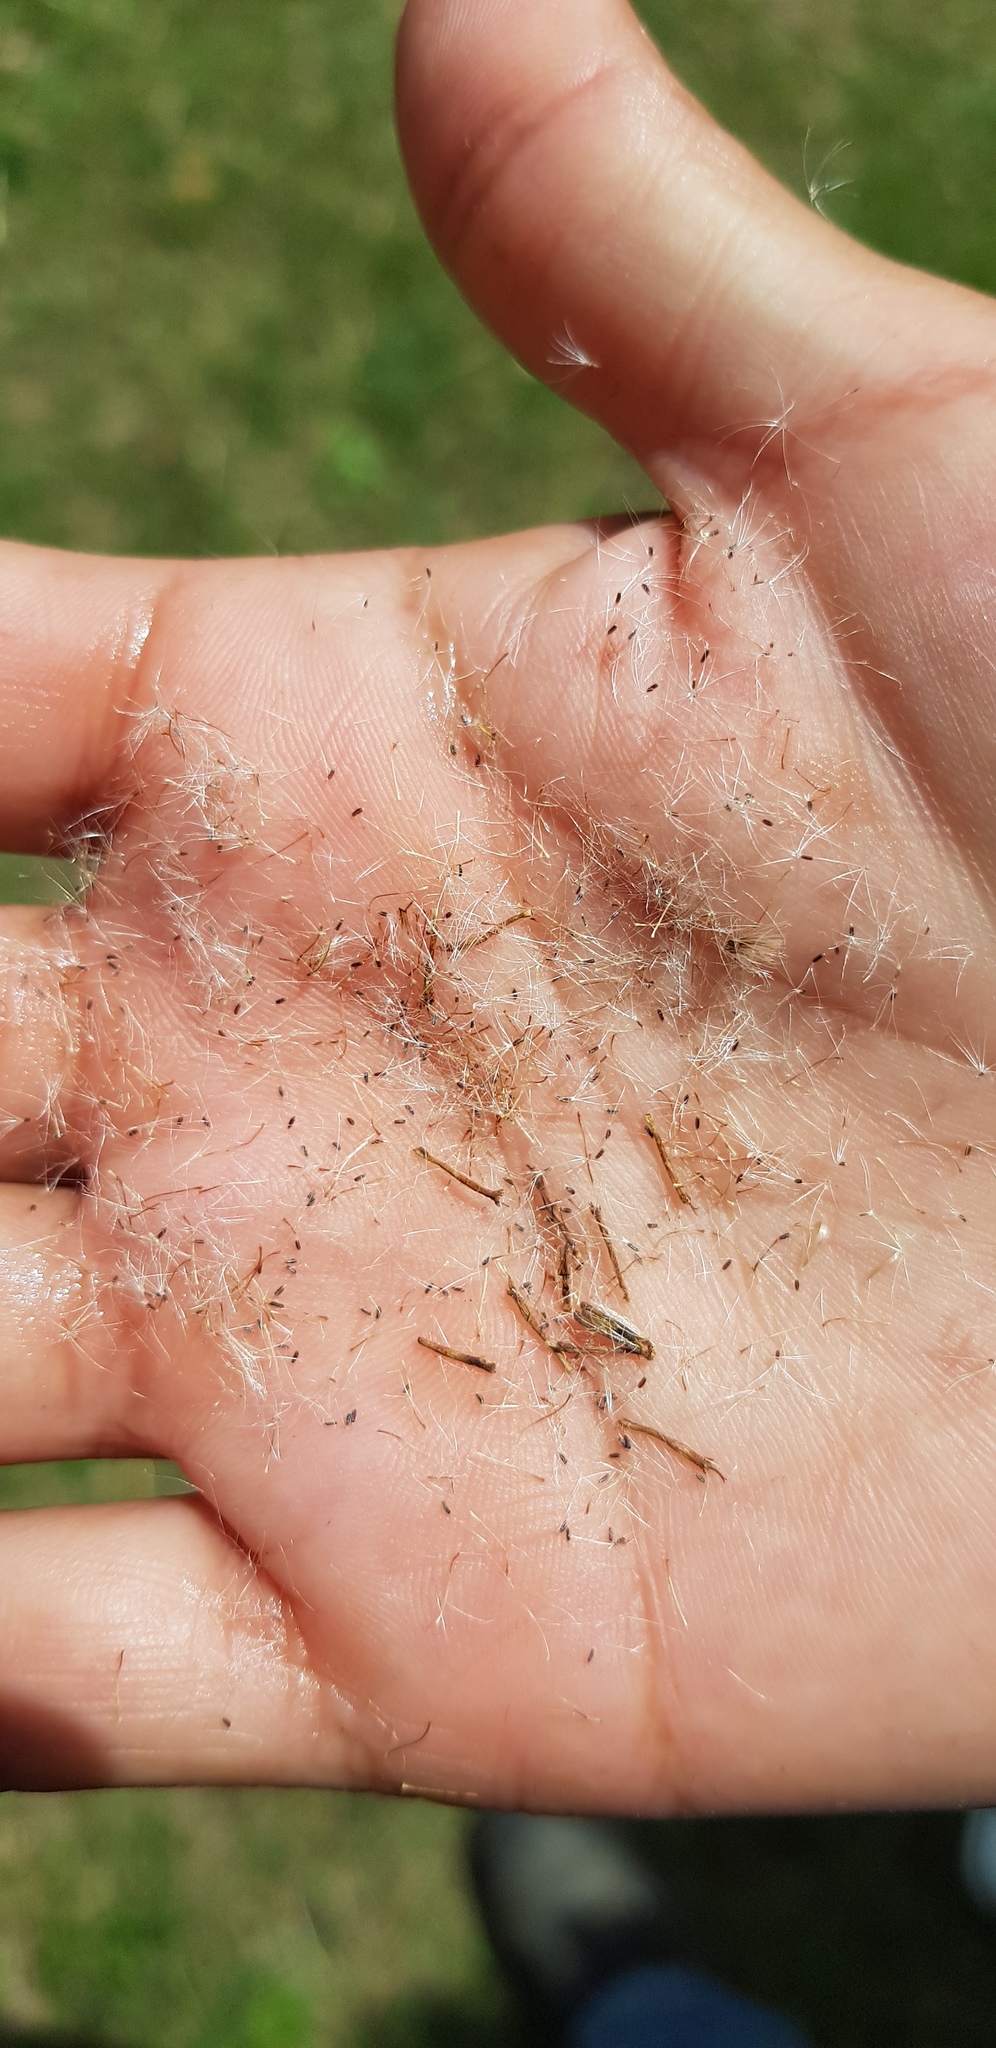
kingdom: Plantae
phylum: Tracheophyta
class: Magnoliopsida
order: Asterales
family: Asteraceae
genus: Pluchea
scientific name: Pluchea carolinensis
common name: Marsh fleabane
